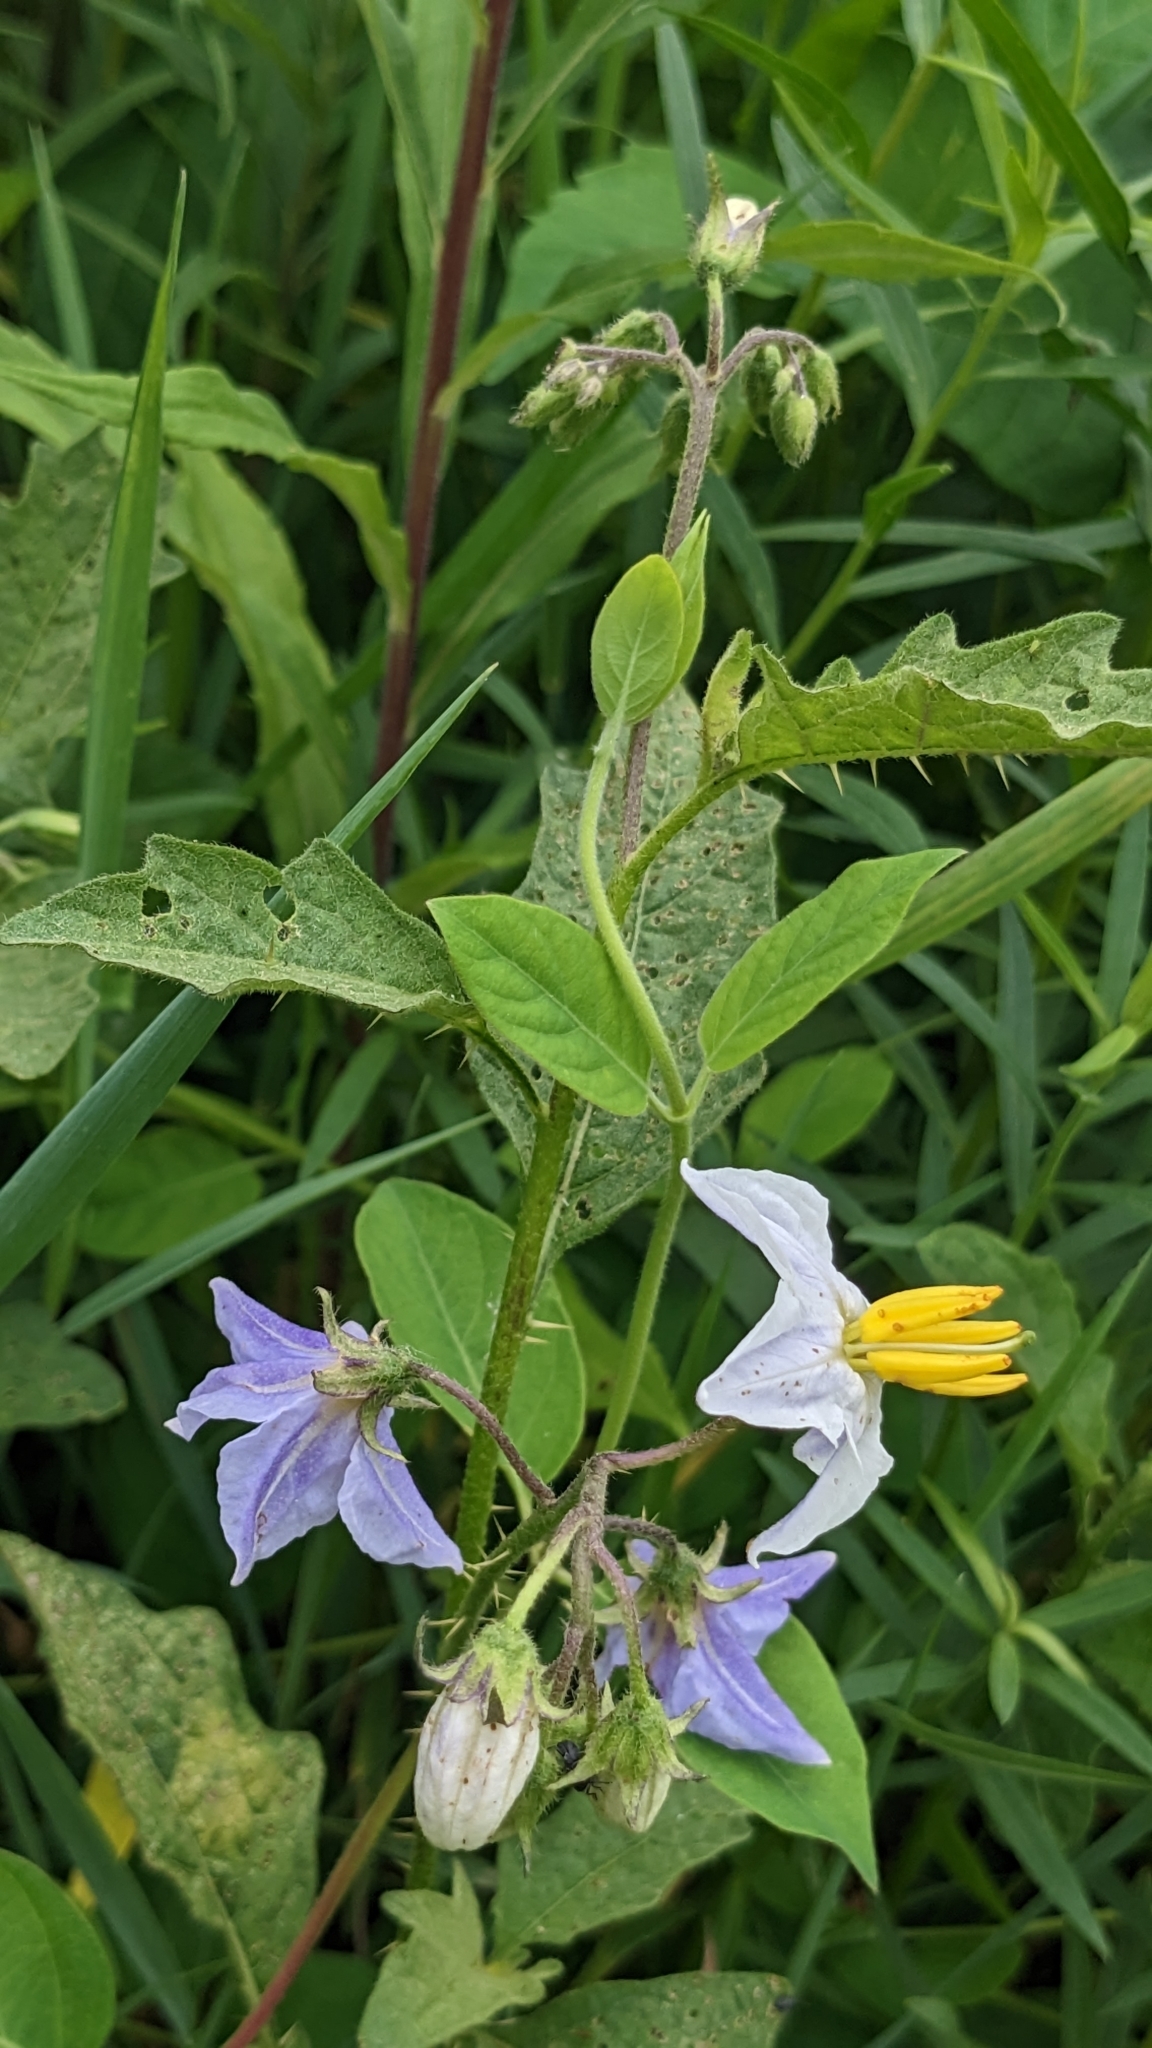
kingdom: Plantae
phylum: Tracheophyta
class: Magnoliopsida
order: Solanales
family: Solanaceae
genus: Solanum
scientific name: Solanum carolinense
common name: Horse-nettle
